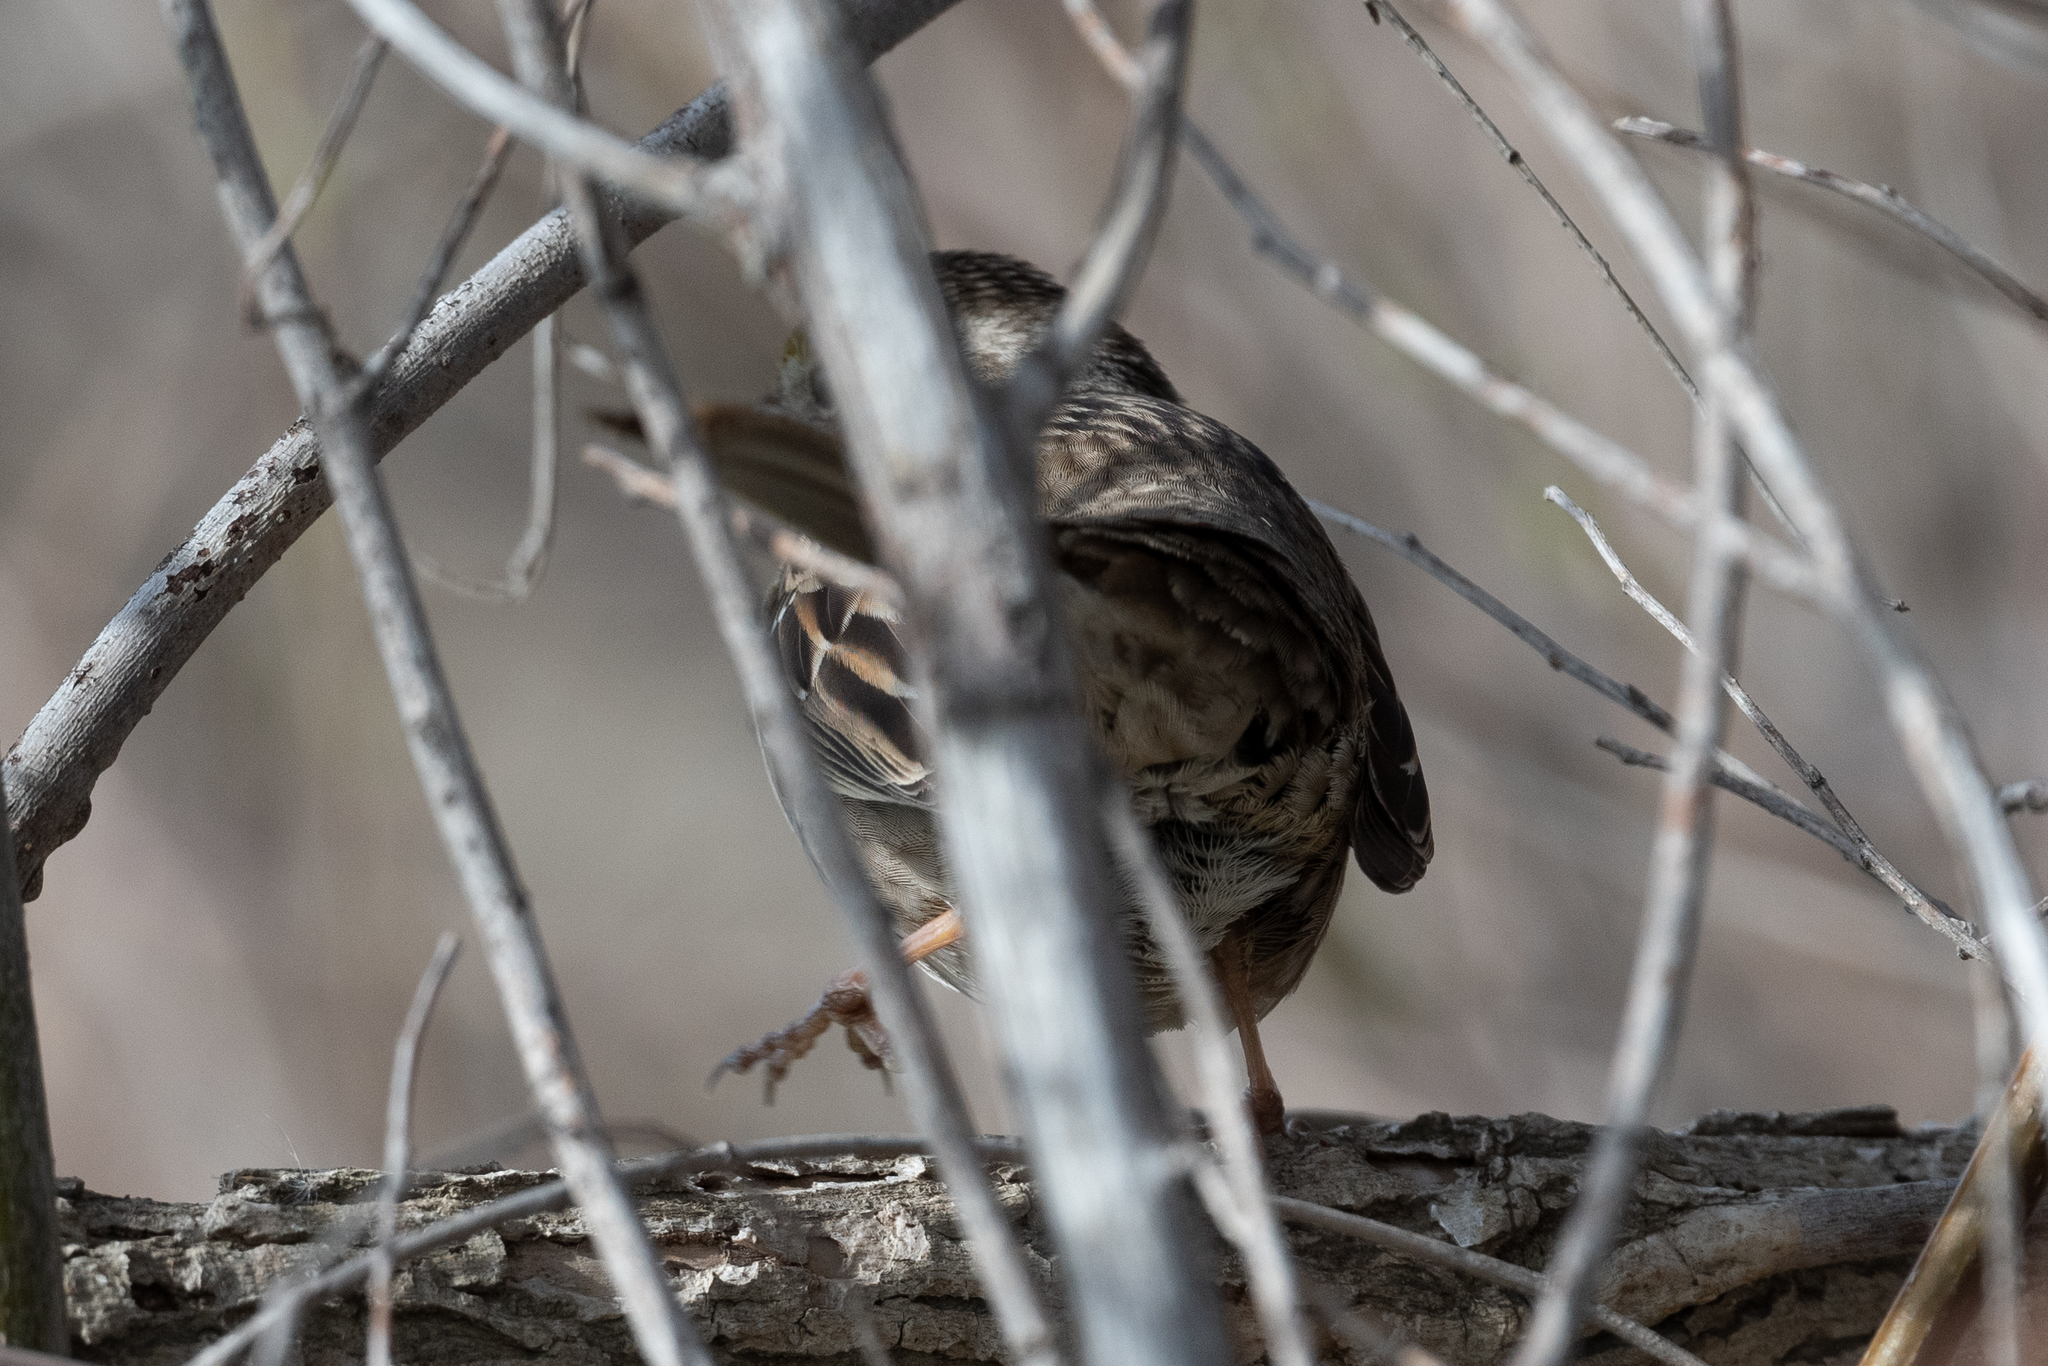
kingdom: Animalia
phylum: Chordata
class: Aves
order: Passeriformes
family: Passerellidae
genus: Zonotrichia
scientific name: Zonotrichia atricapilla
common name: Golden-crowned sparrow
